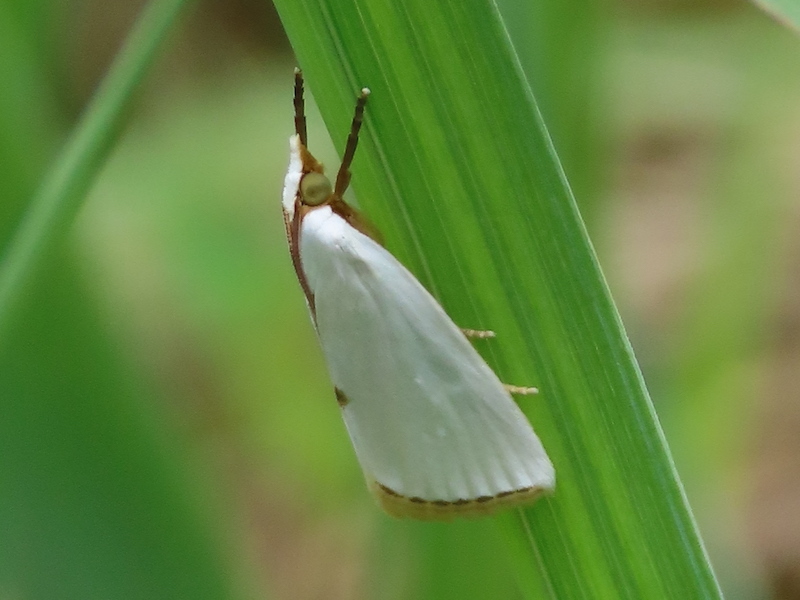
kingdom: Animalia
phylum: Arthropoda
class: Insecta
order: Lepidoptera
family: Crambidae
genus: Argyria
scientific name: Argyria nivalis
